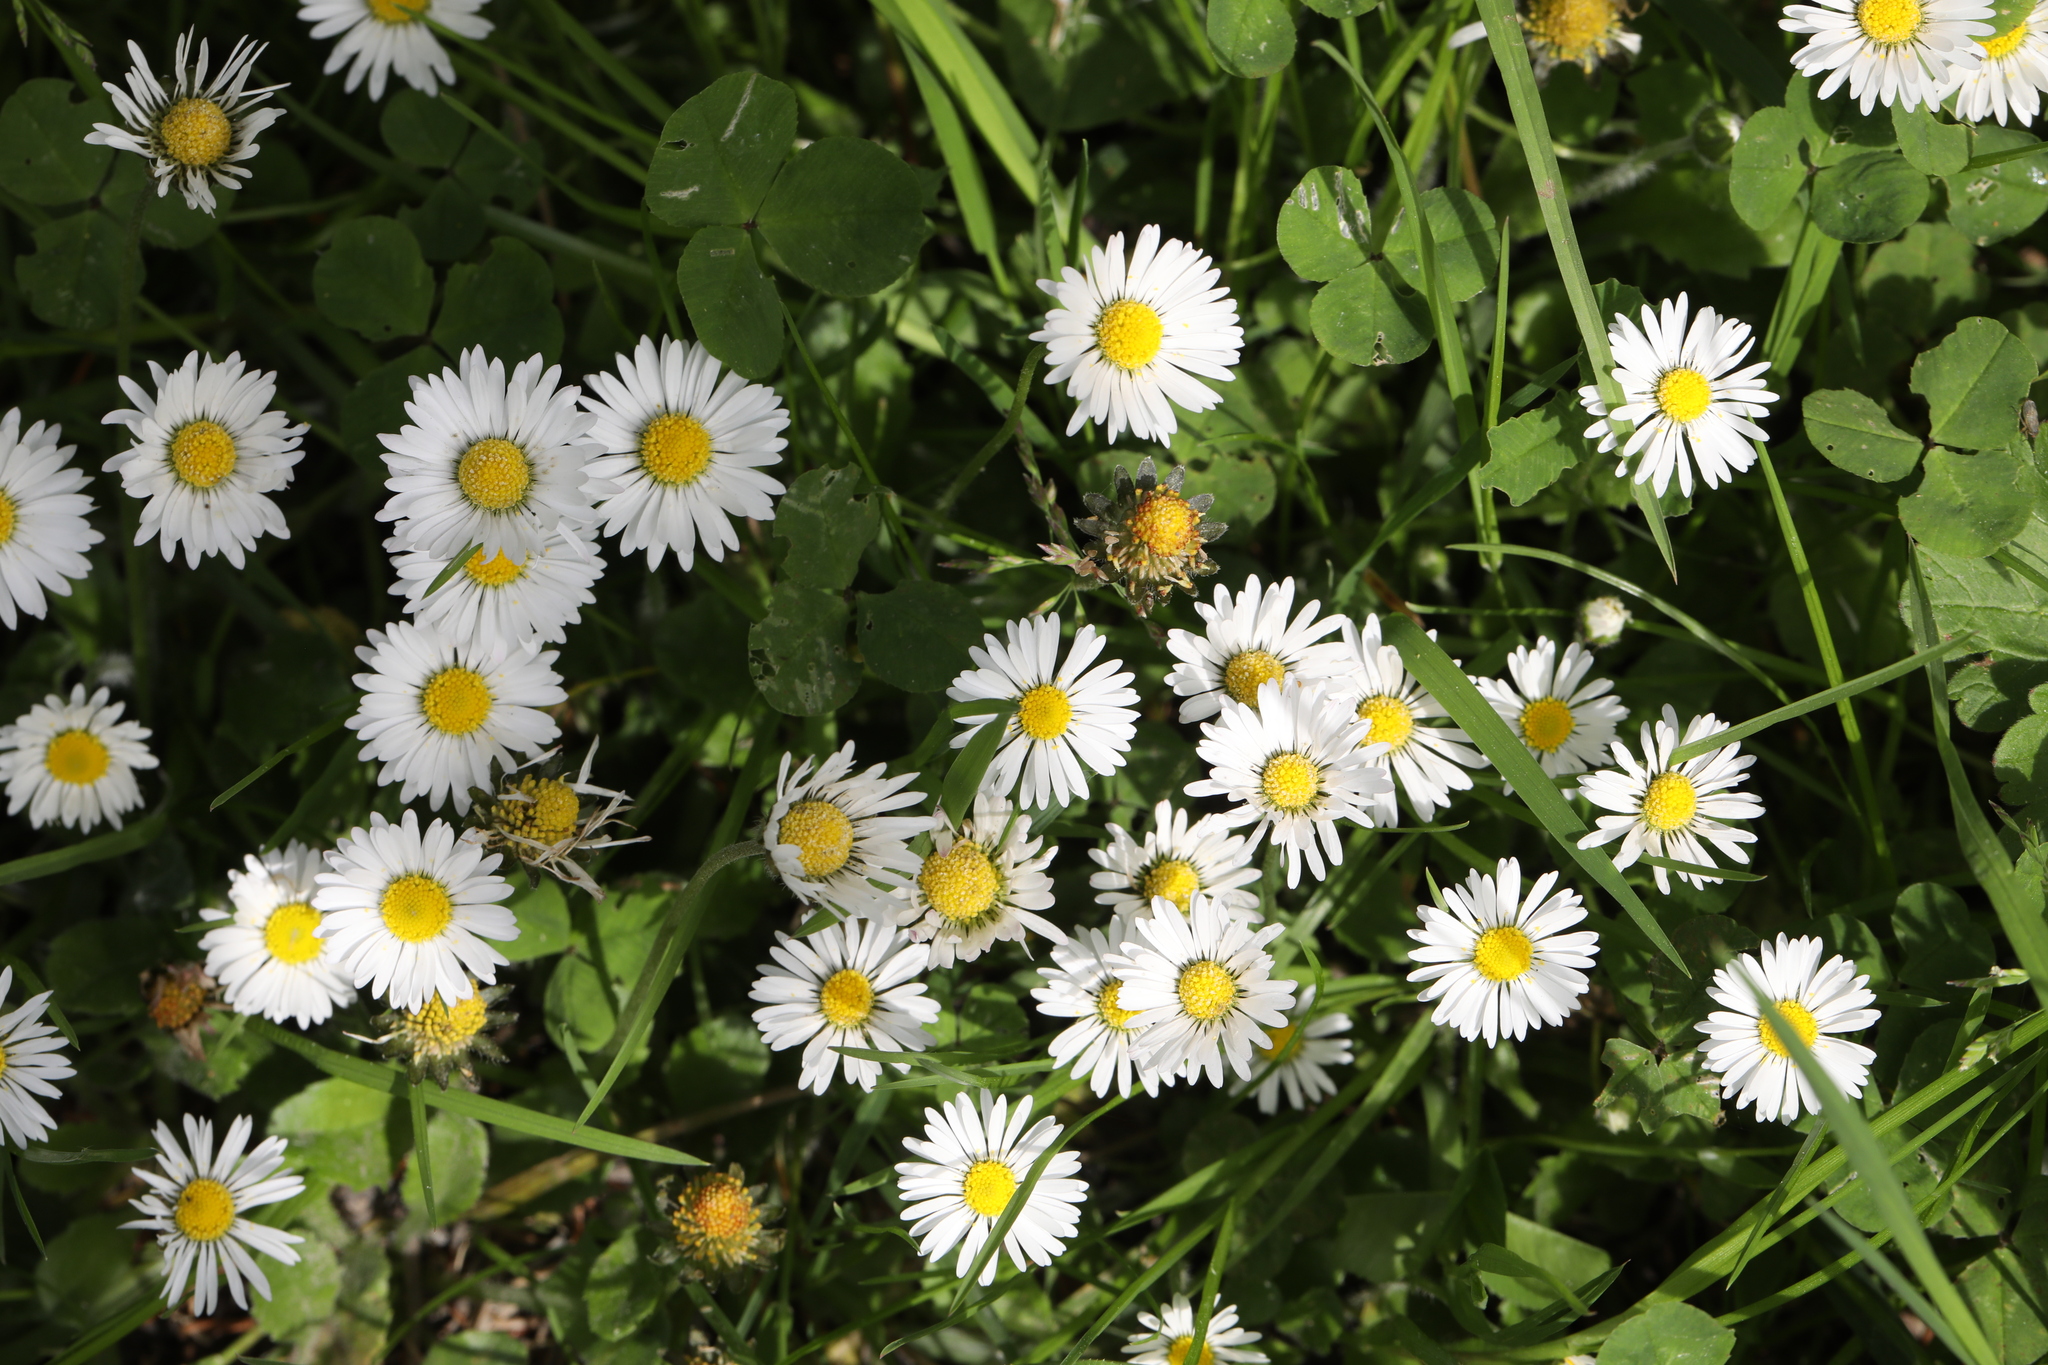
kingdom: Plantae
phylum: Tracheophyta
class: Magnoliopsida
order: Asterales
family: Asteraceae
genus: Bellis
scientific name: Bellis perennis
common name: Lawndaisy
